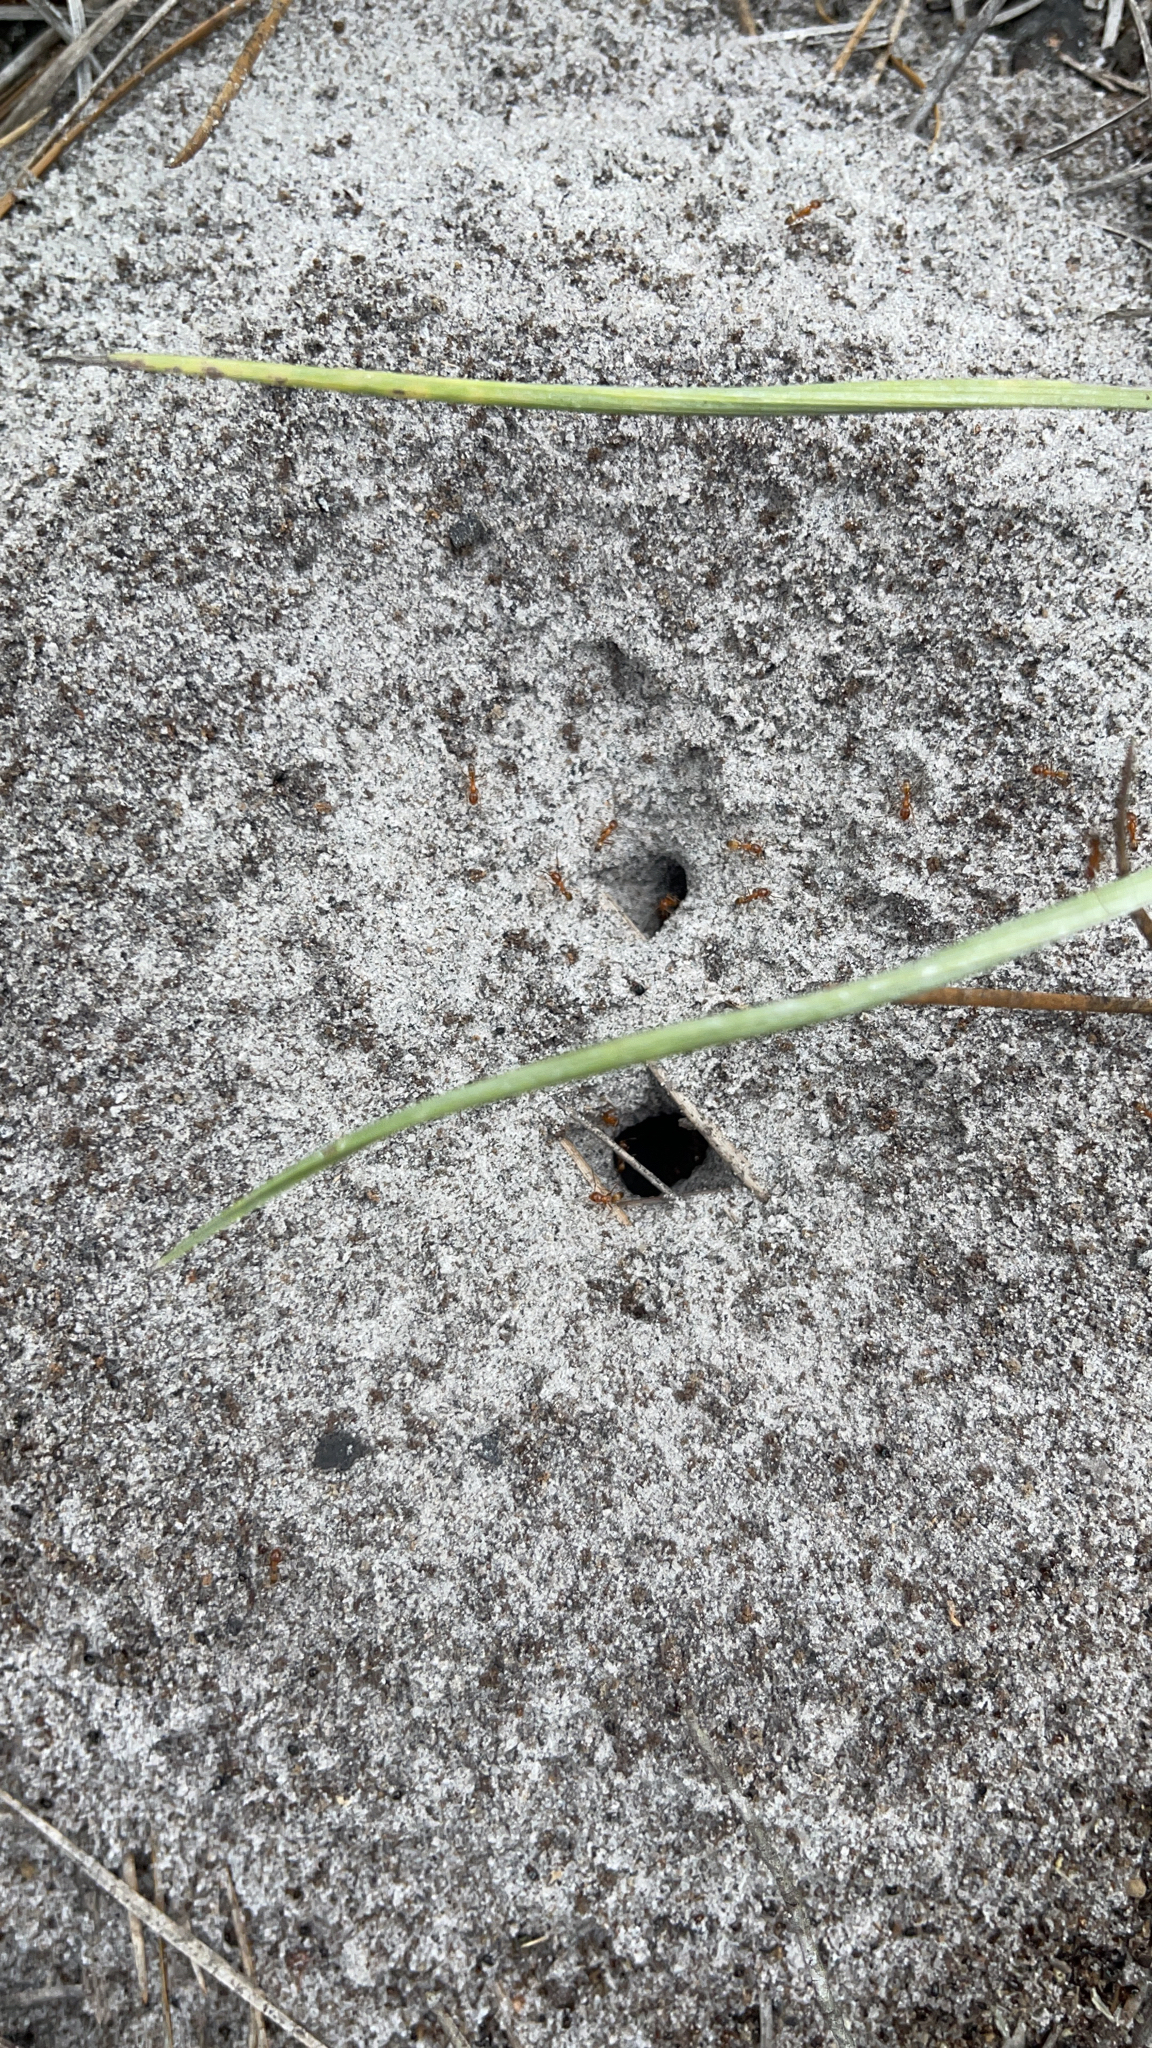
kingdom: Animalia
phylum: Arthropoda
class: Insecta
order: Hymenoptera
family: Formicidae
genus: Dorymyrmex
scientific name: Dorymyrmex bureni
